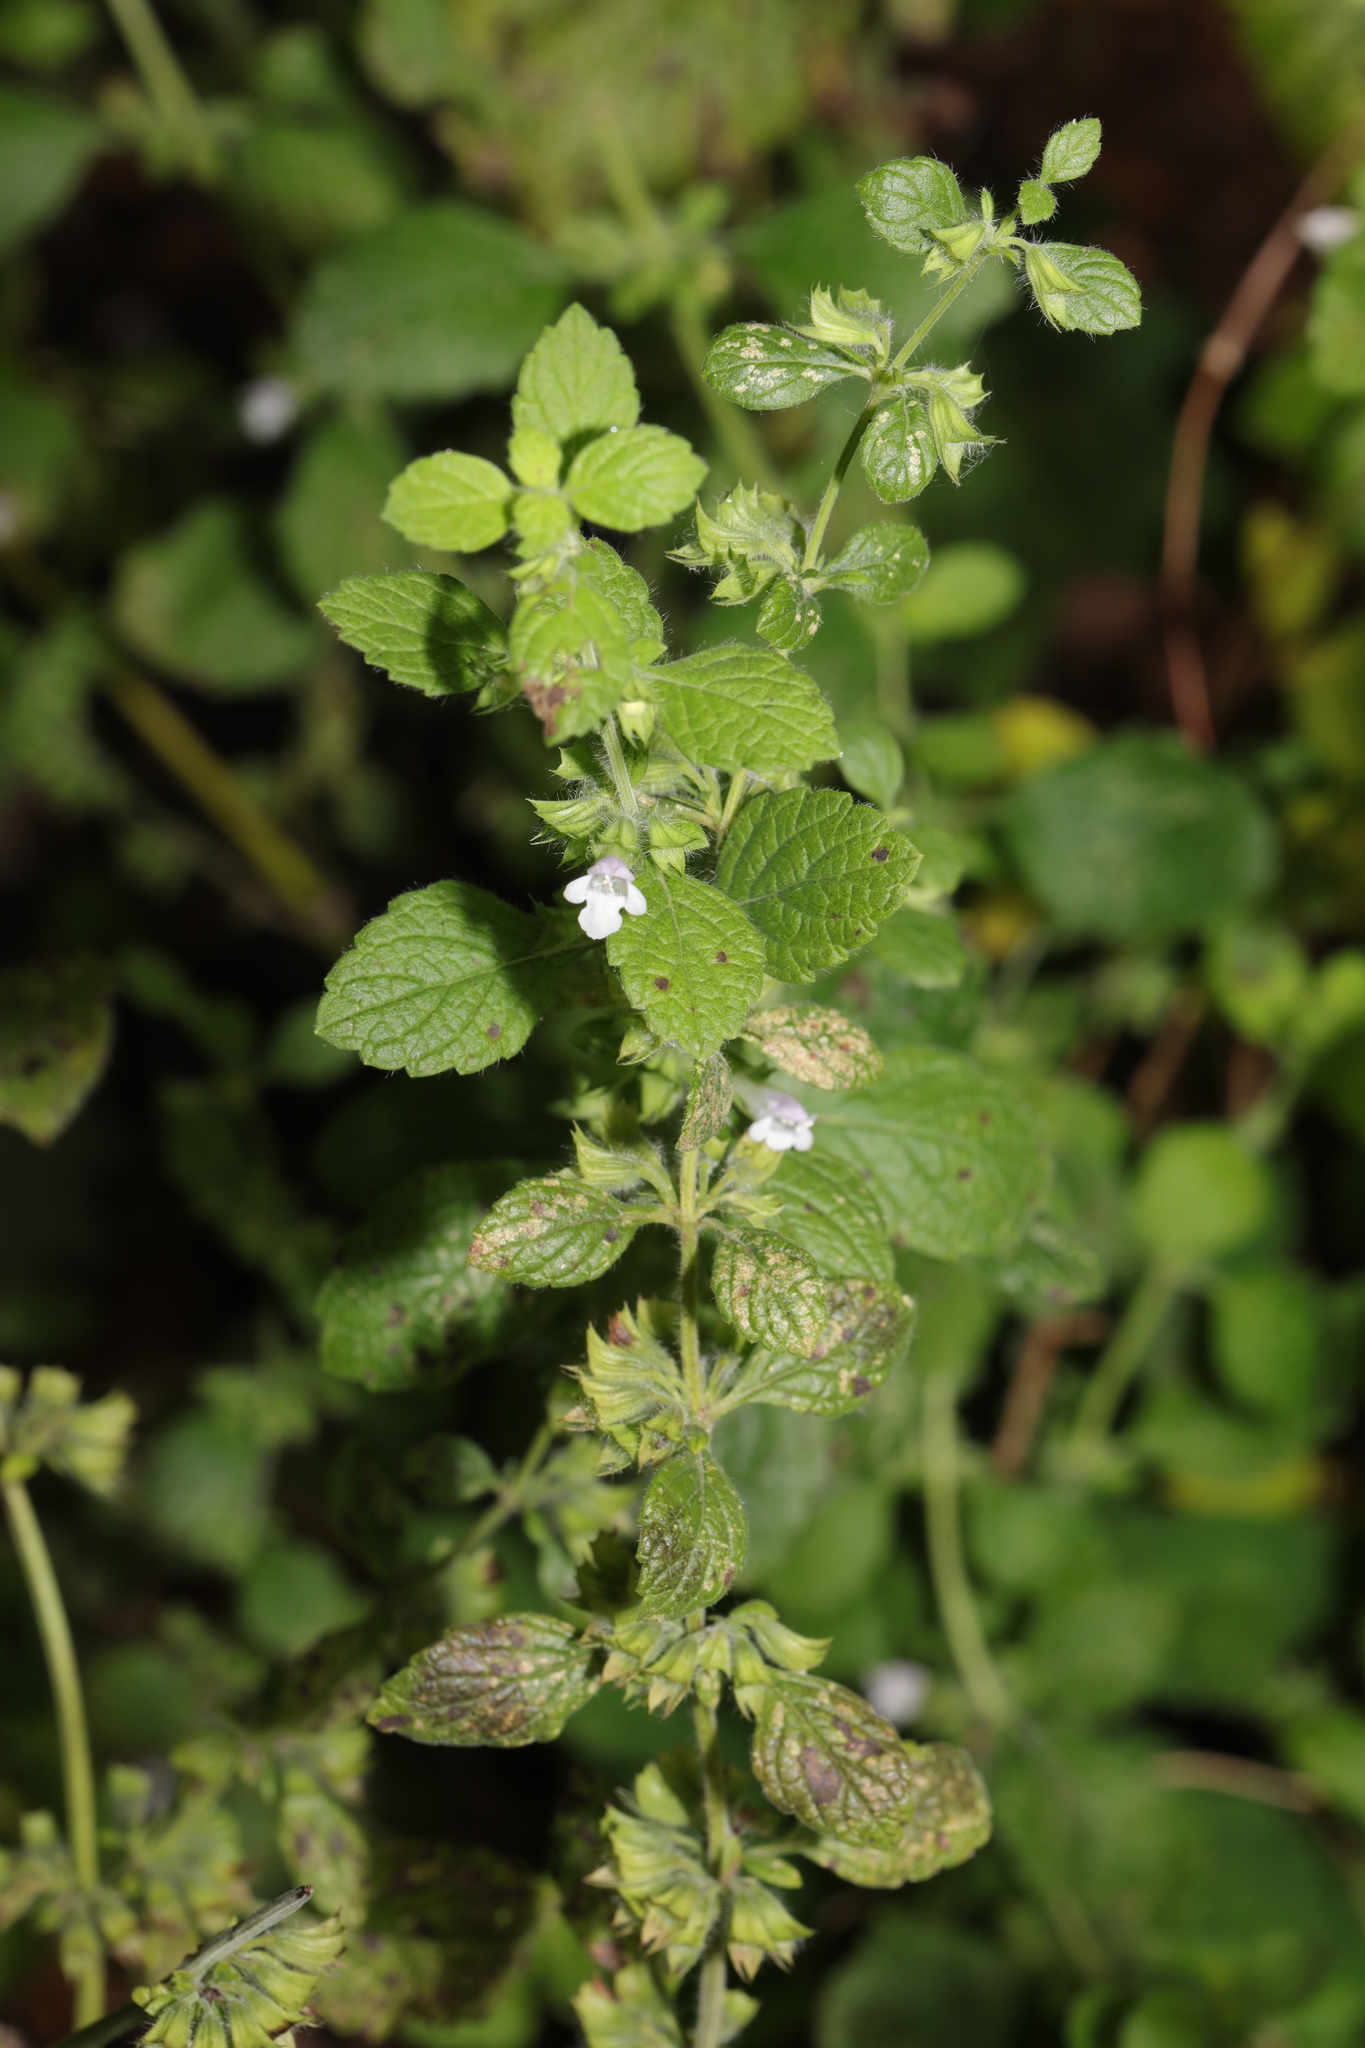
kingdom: Plantae
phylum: Tracheophyta
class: Magnoliopsida
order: Lamiales
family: Lamiaceae
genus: Melissa
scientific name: Melissa officinalis
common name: Balm
